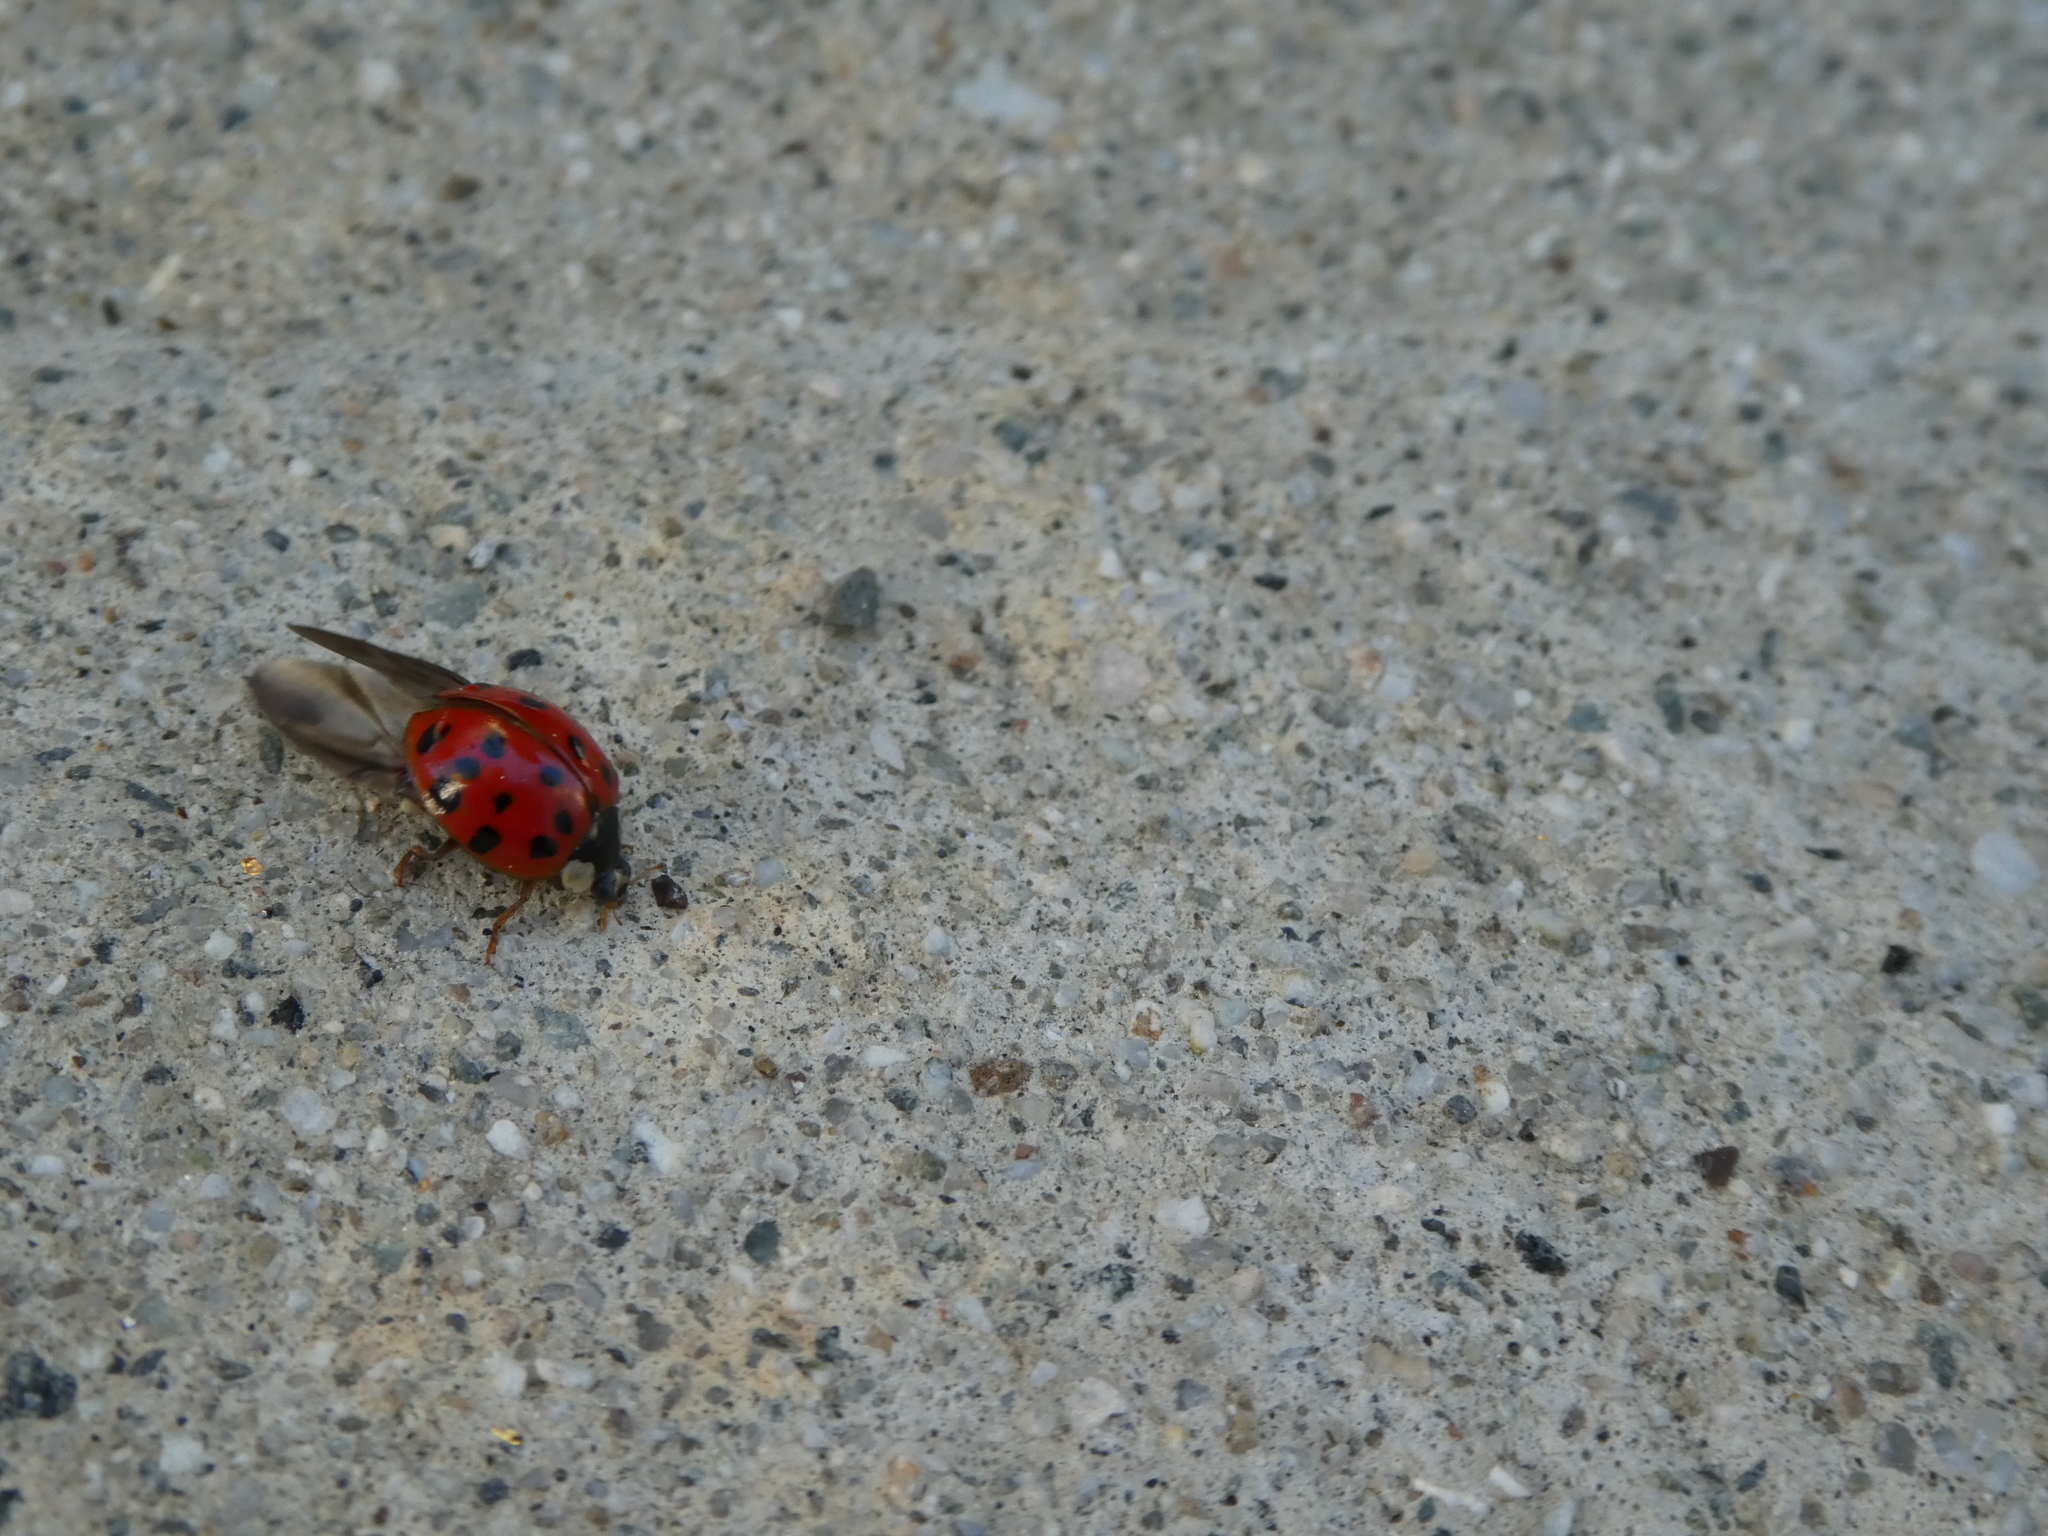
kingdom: Animalia
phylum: Arthropoda
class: Insecta
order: Coleoptera
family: Coccinellidae
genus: Harmonia
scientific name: Harmonia axyridis
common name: Harlequin ladybird
